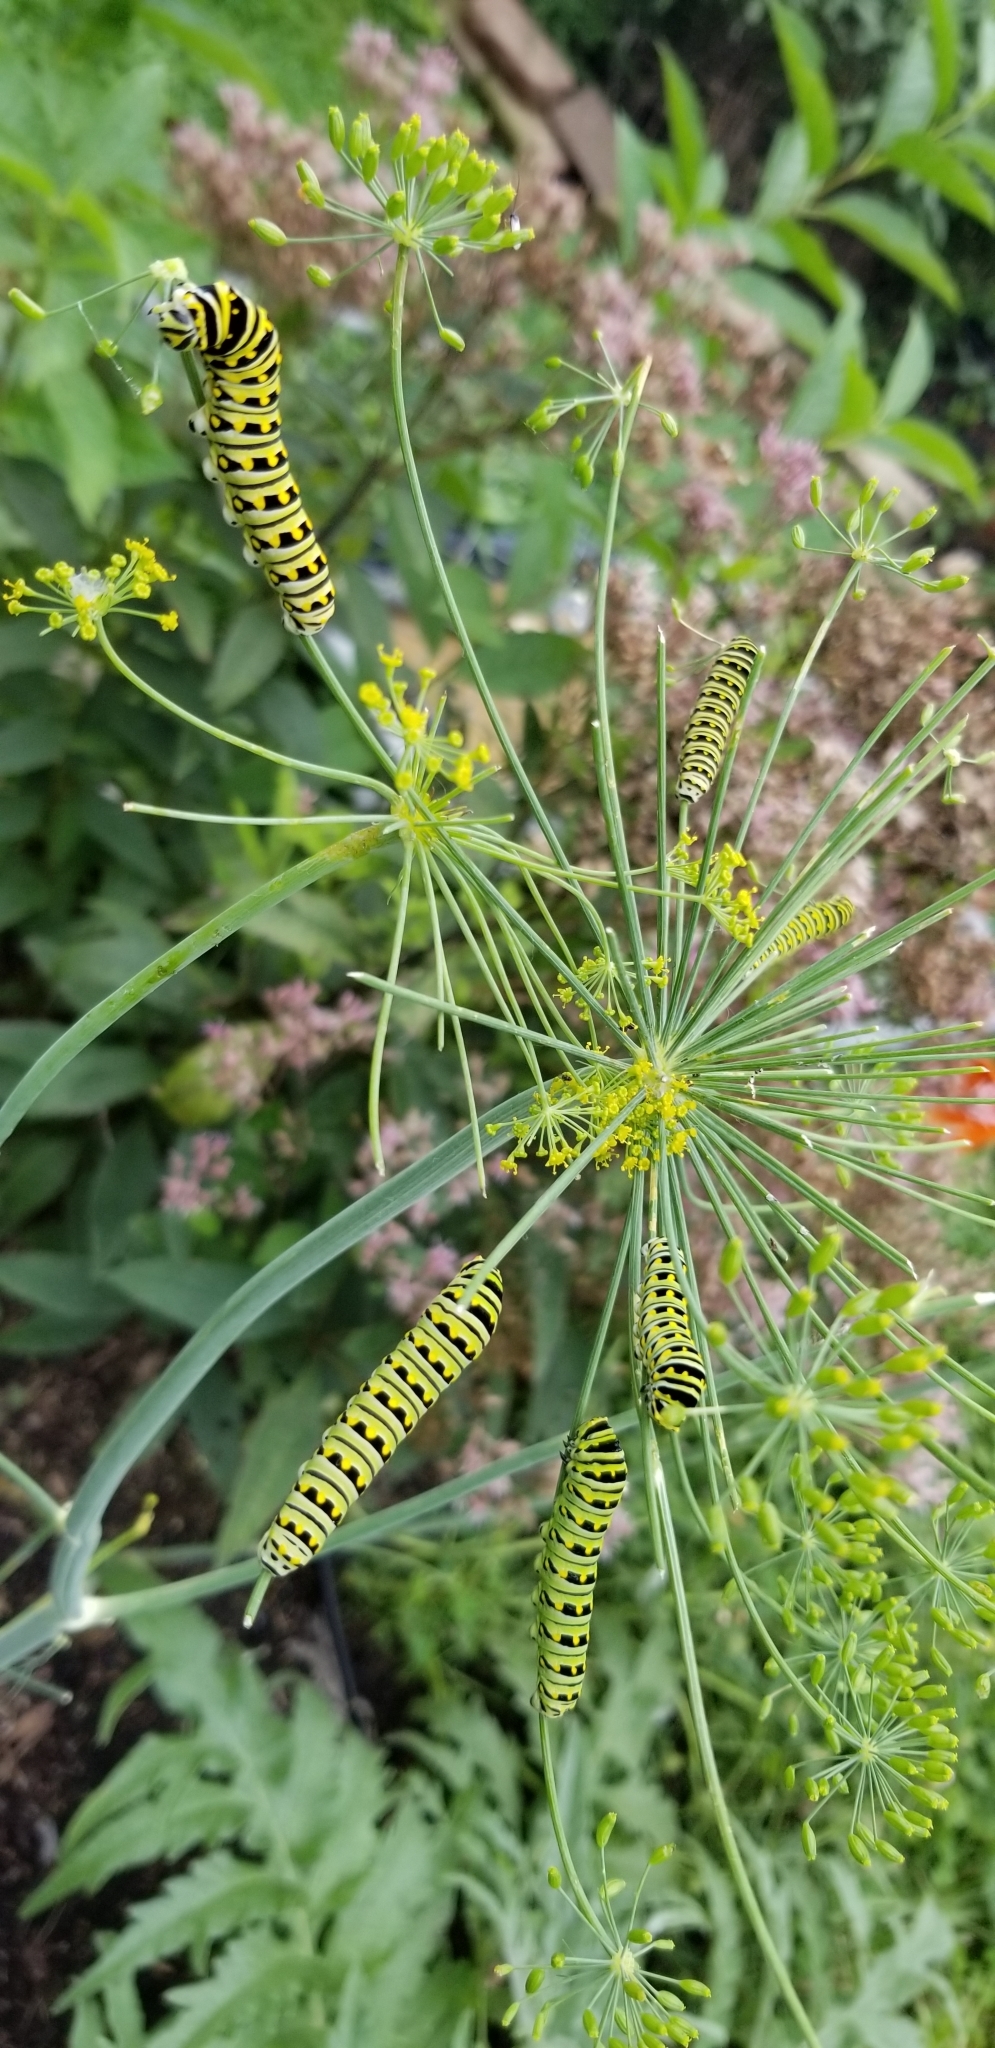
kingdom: Animalia
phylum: Arthropoda
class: Insecta
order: Lepidoptera
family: Papilionidae
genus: Papilio
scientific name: Papilio polyxenes
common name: Black swallowtail
